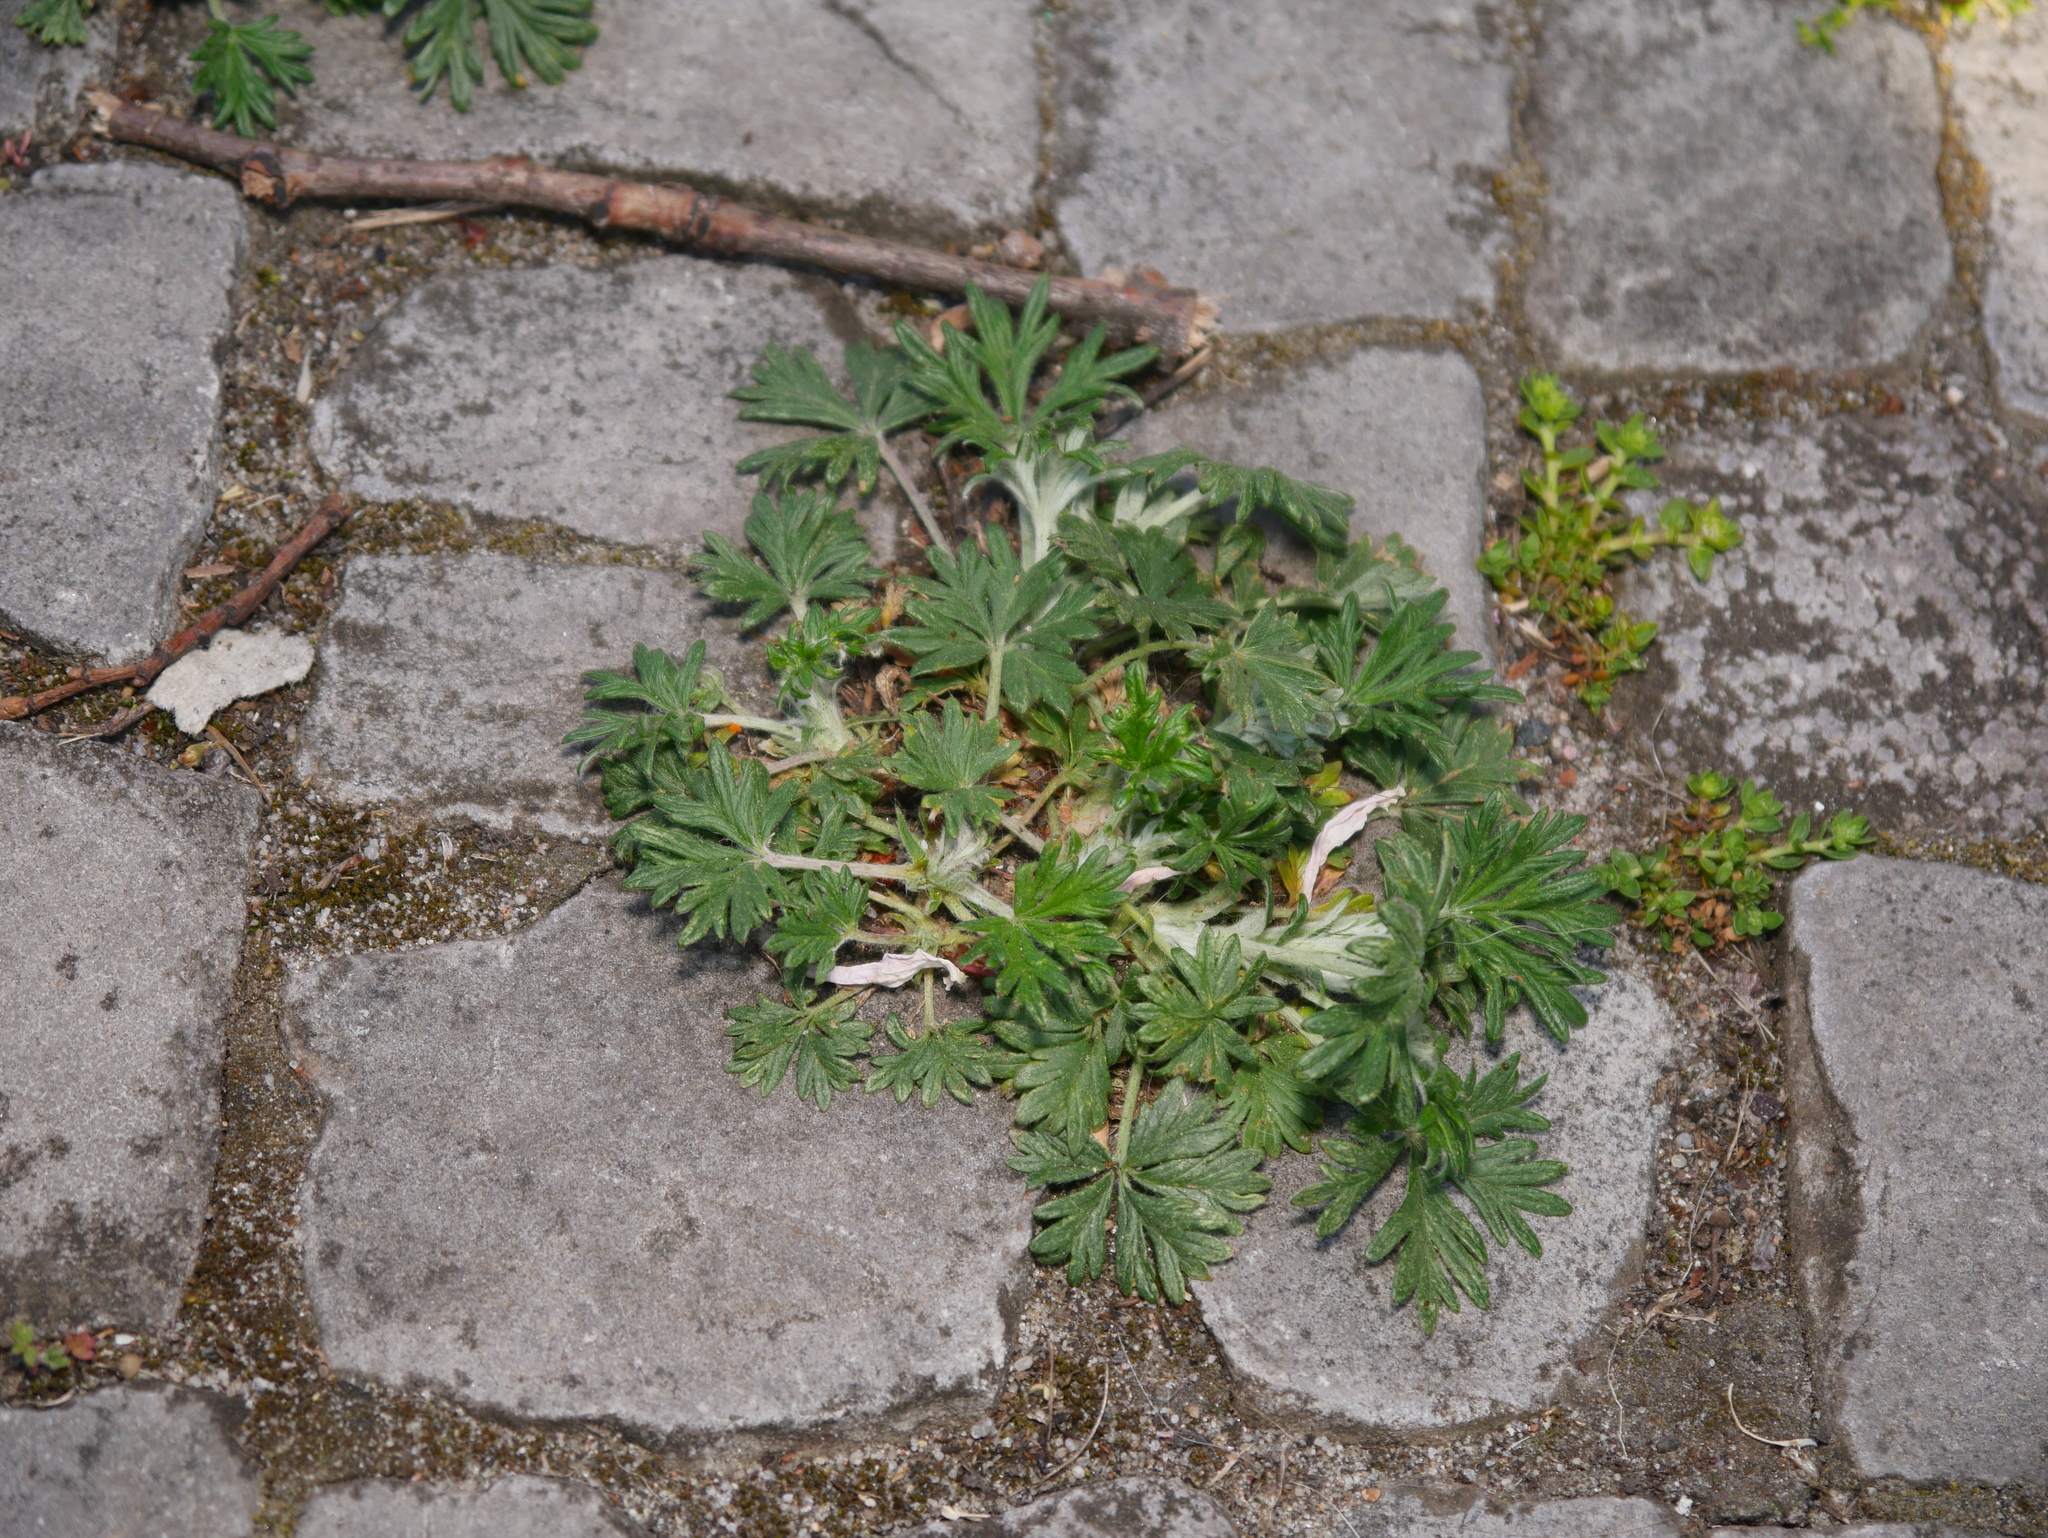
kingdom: Plantae
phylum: Tracheophyta
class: Magnoliopsida
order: Rosales
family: Rosaceae
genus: Potentilla
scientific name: Potentilla argentea
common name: Hoary cinquefoil
